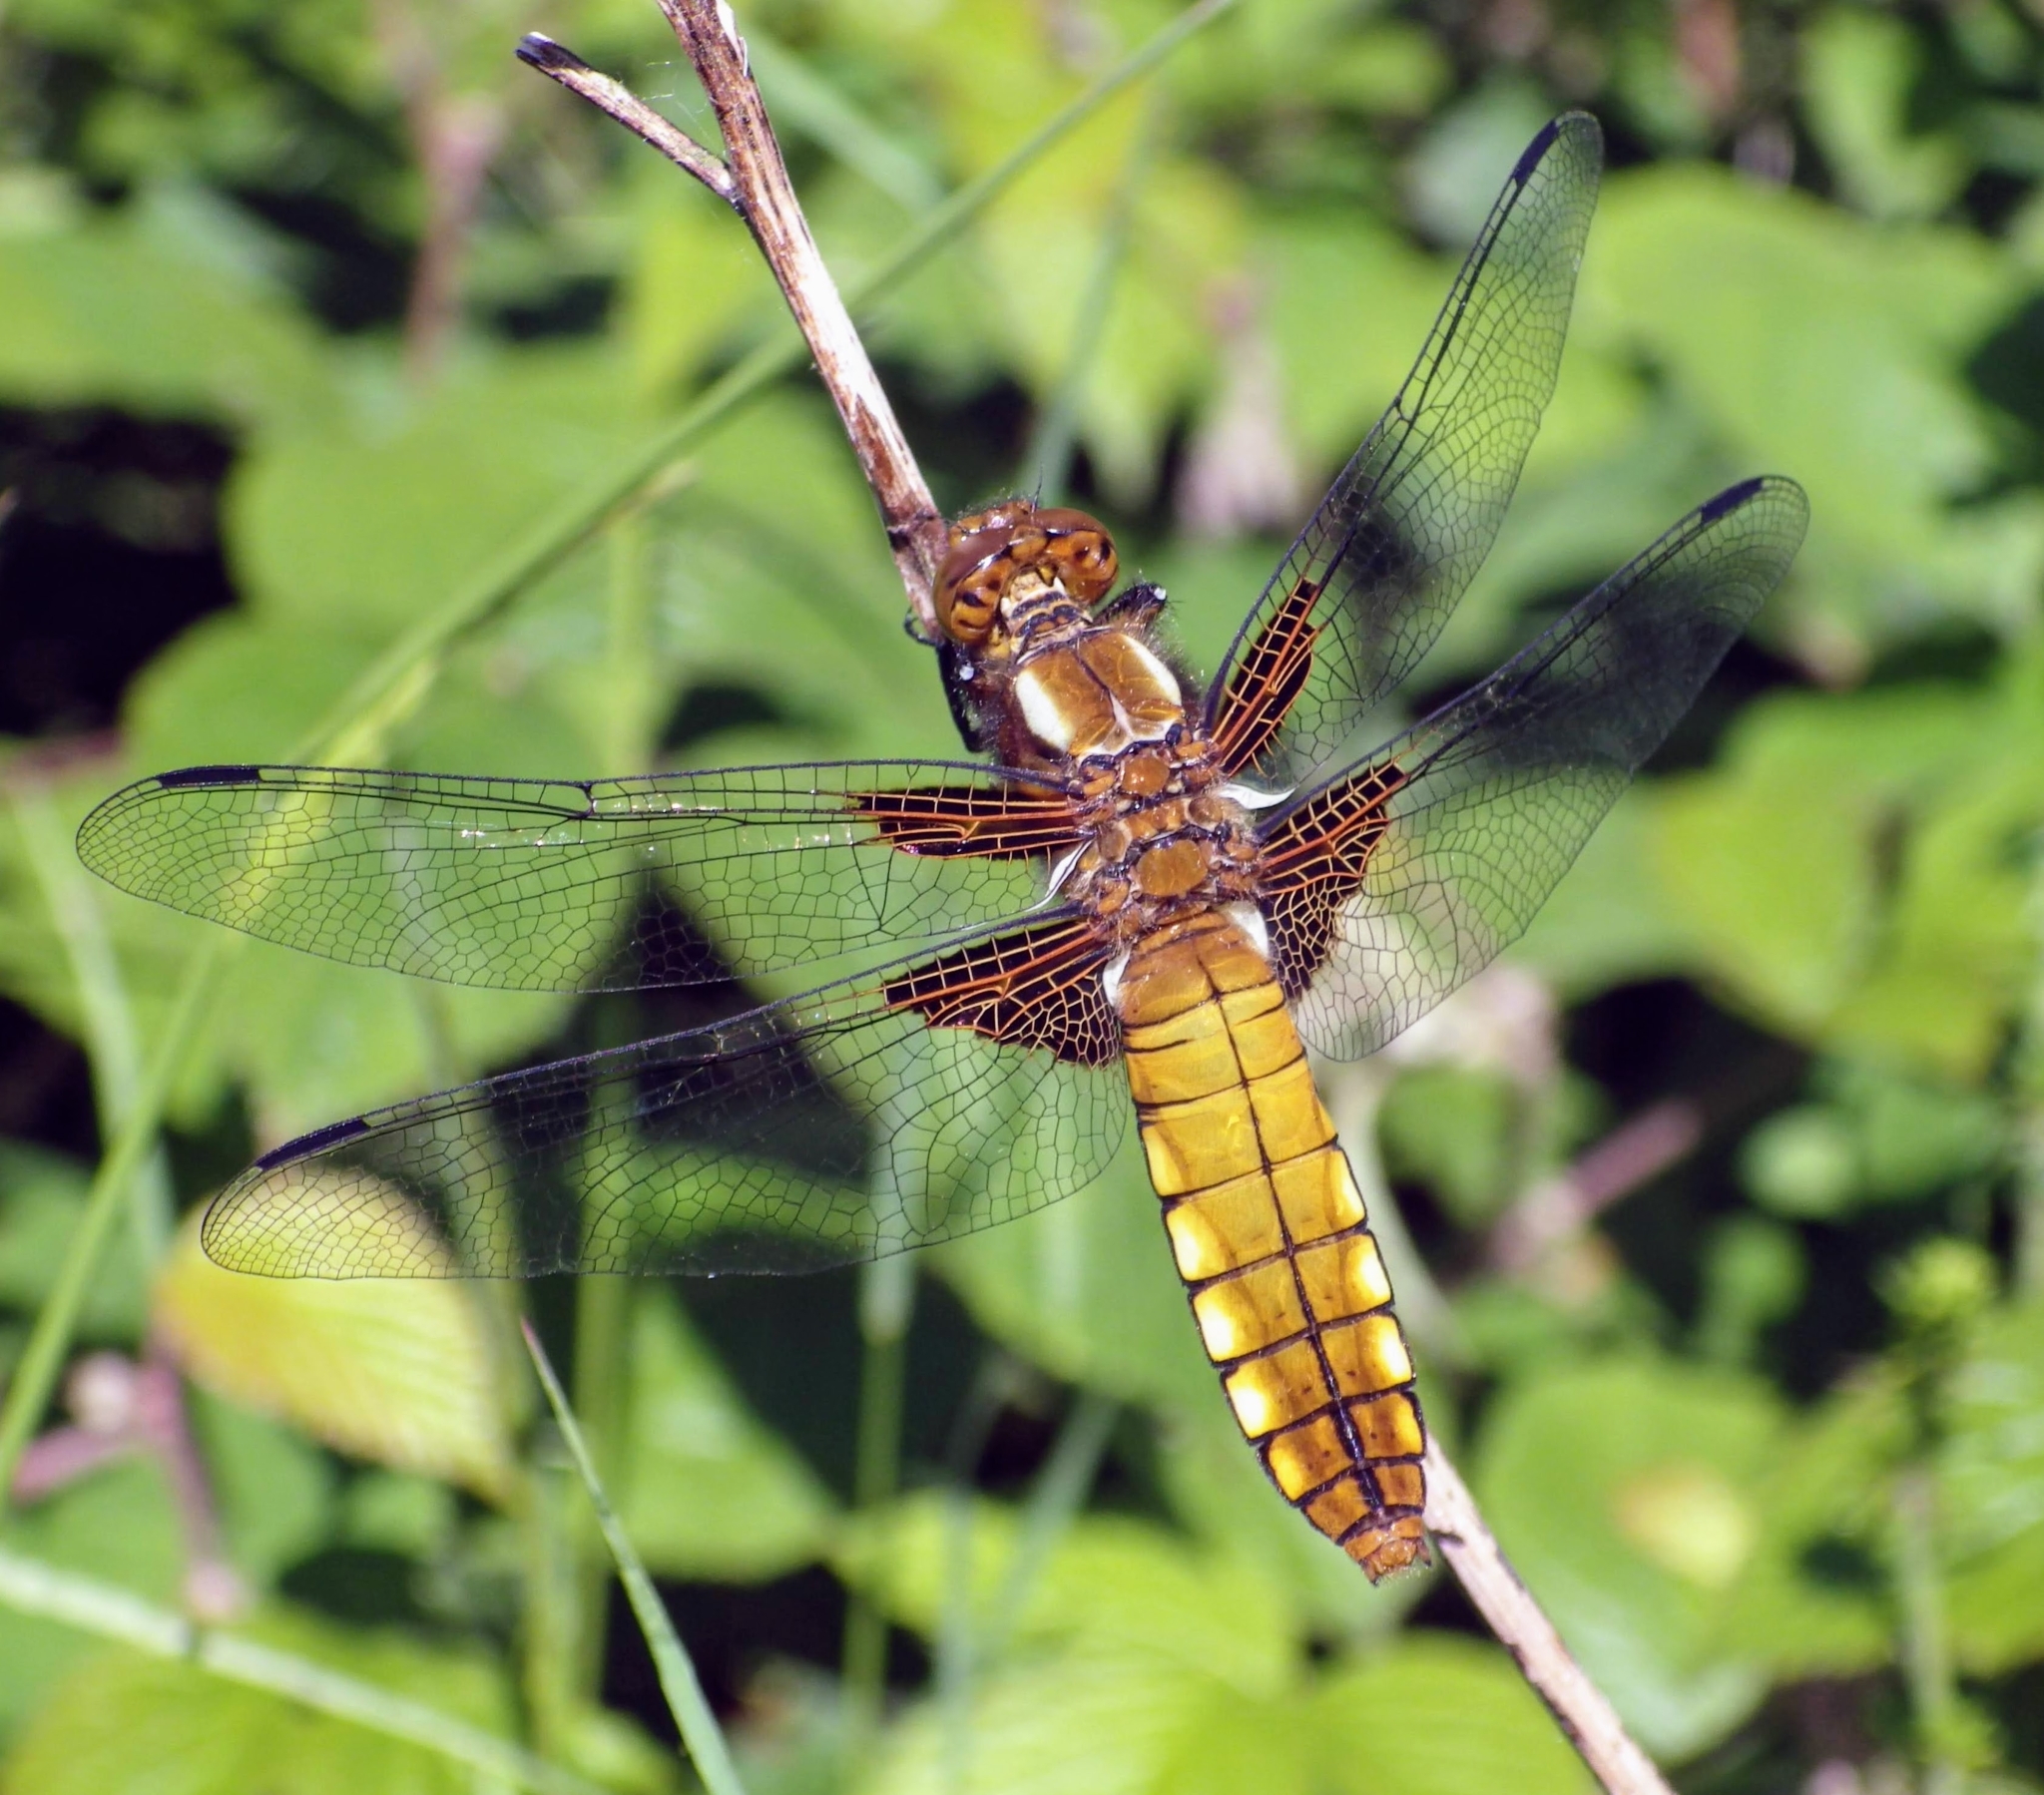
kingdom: Animalia
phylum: Arthropoda
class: Insecta
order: Odonata
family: Libellulidae
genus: Libellula
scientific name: Libellula depressa
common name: Broad-bodied chaser
